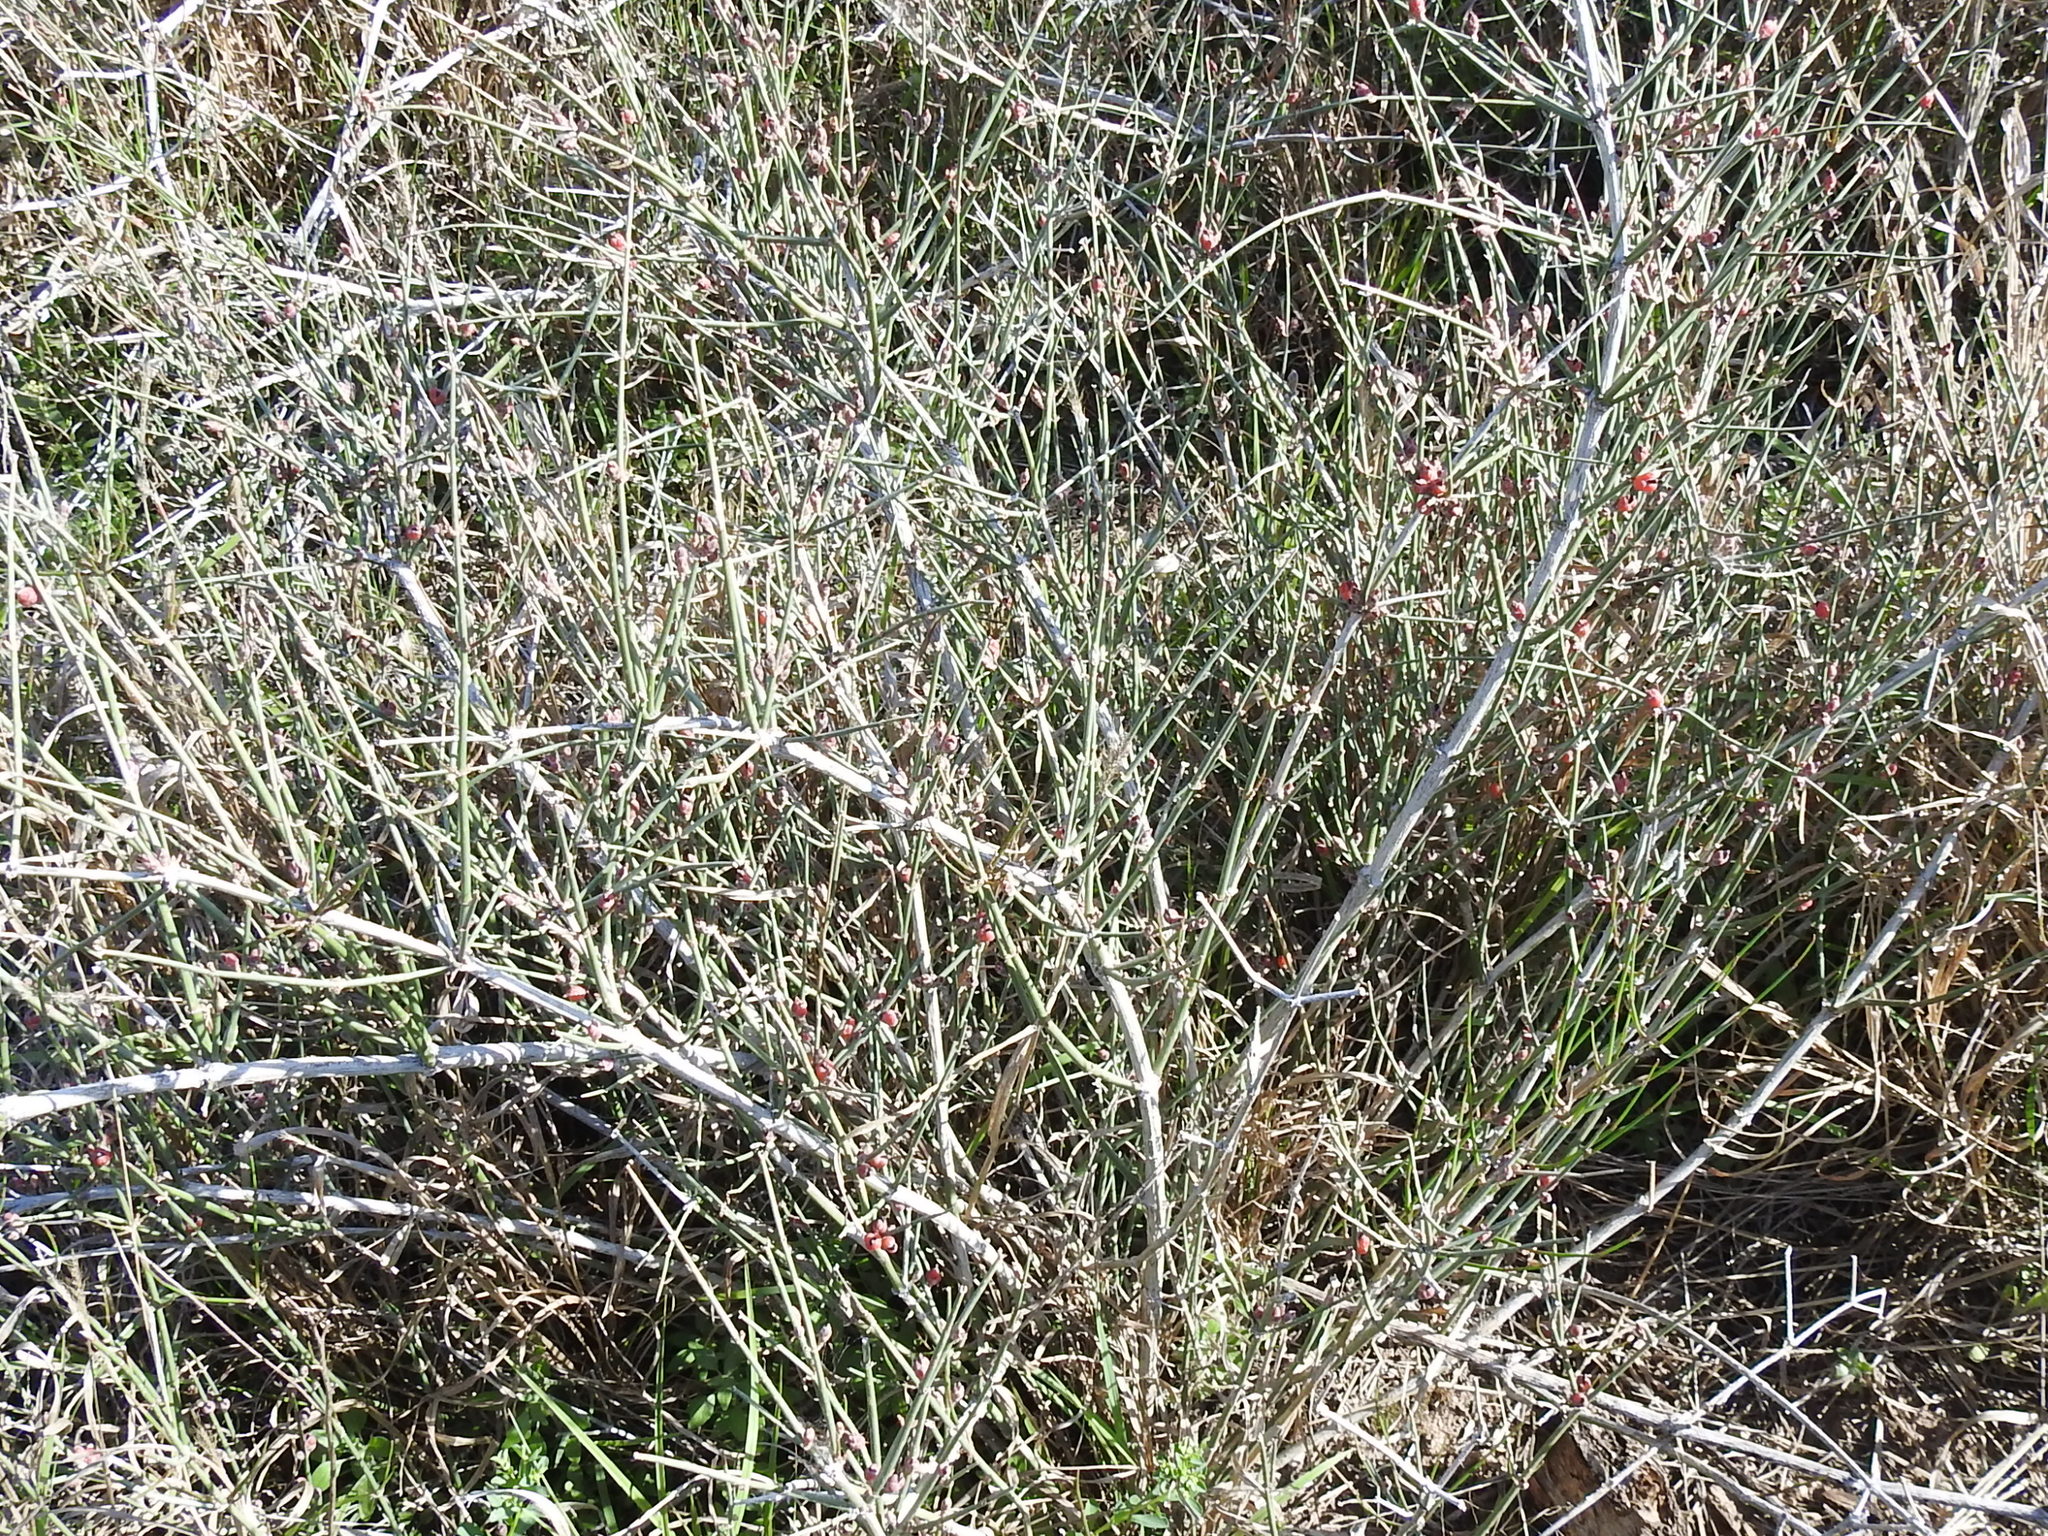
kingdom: Plantae
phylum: Tracheophyta
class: Gnetopsida
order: Ephedrales
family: Ephedraceae
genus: Ephedra
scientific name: Ephedra antisyphilitica
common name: Clipweed
